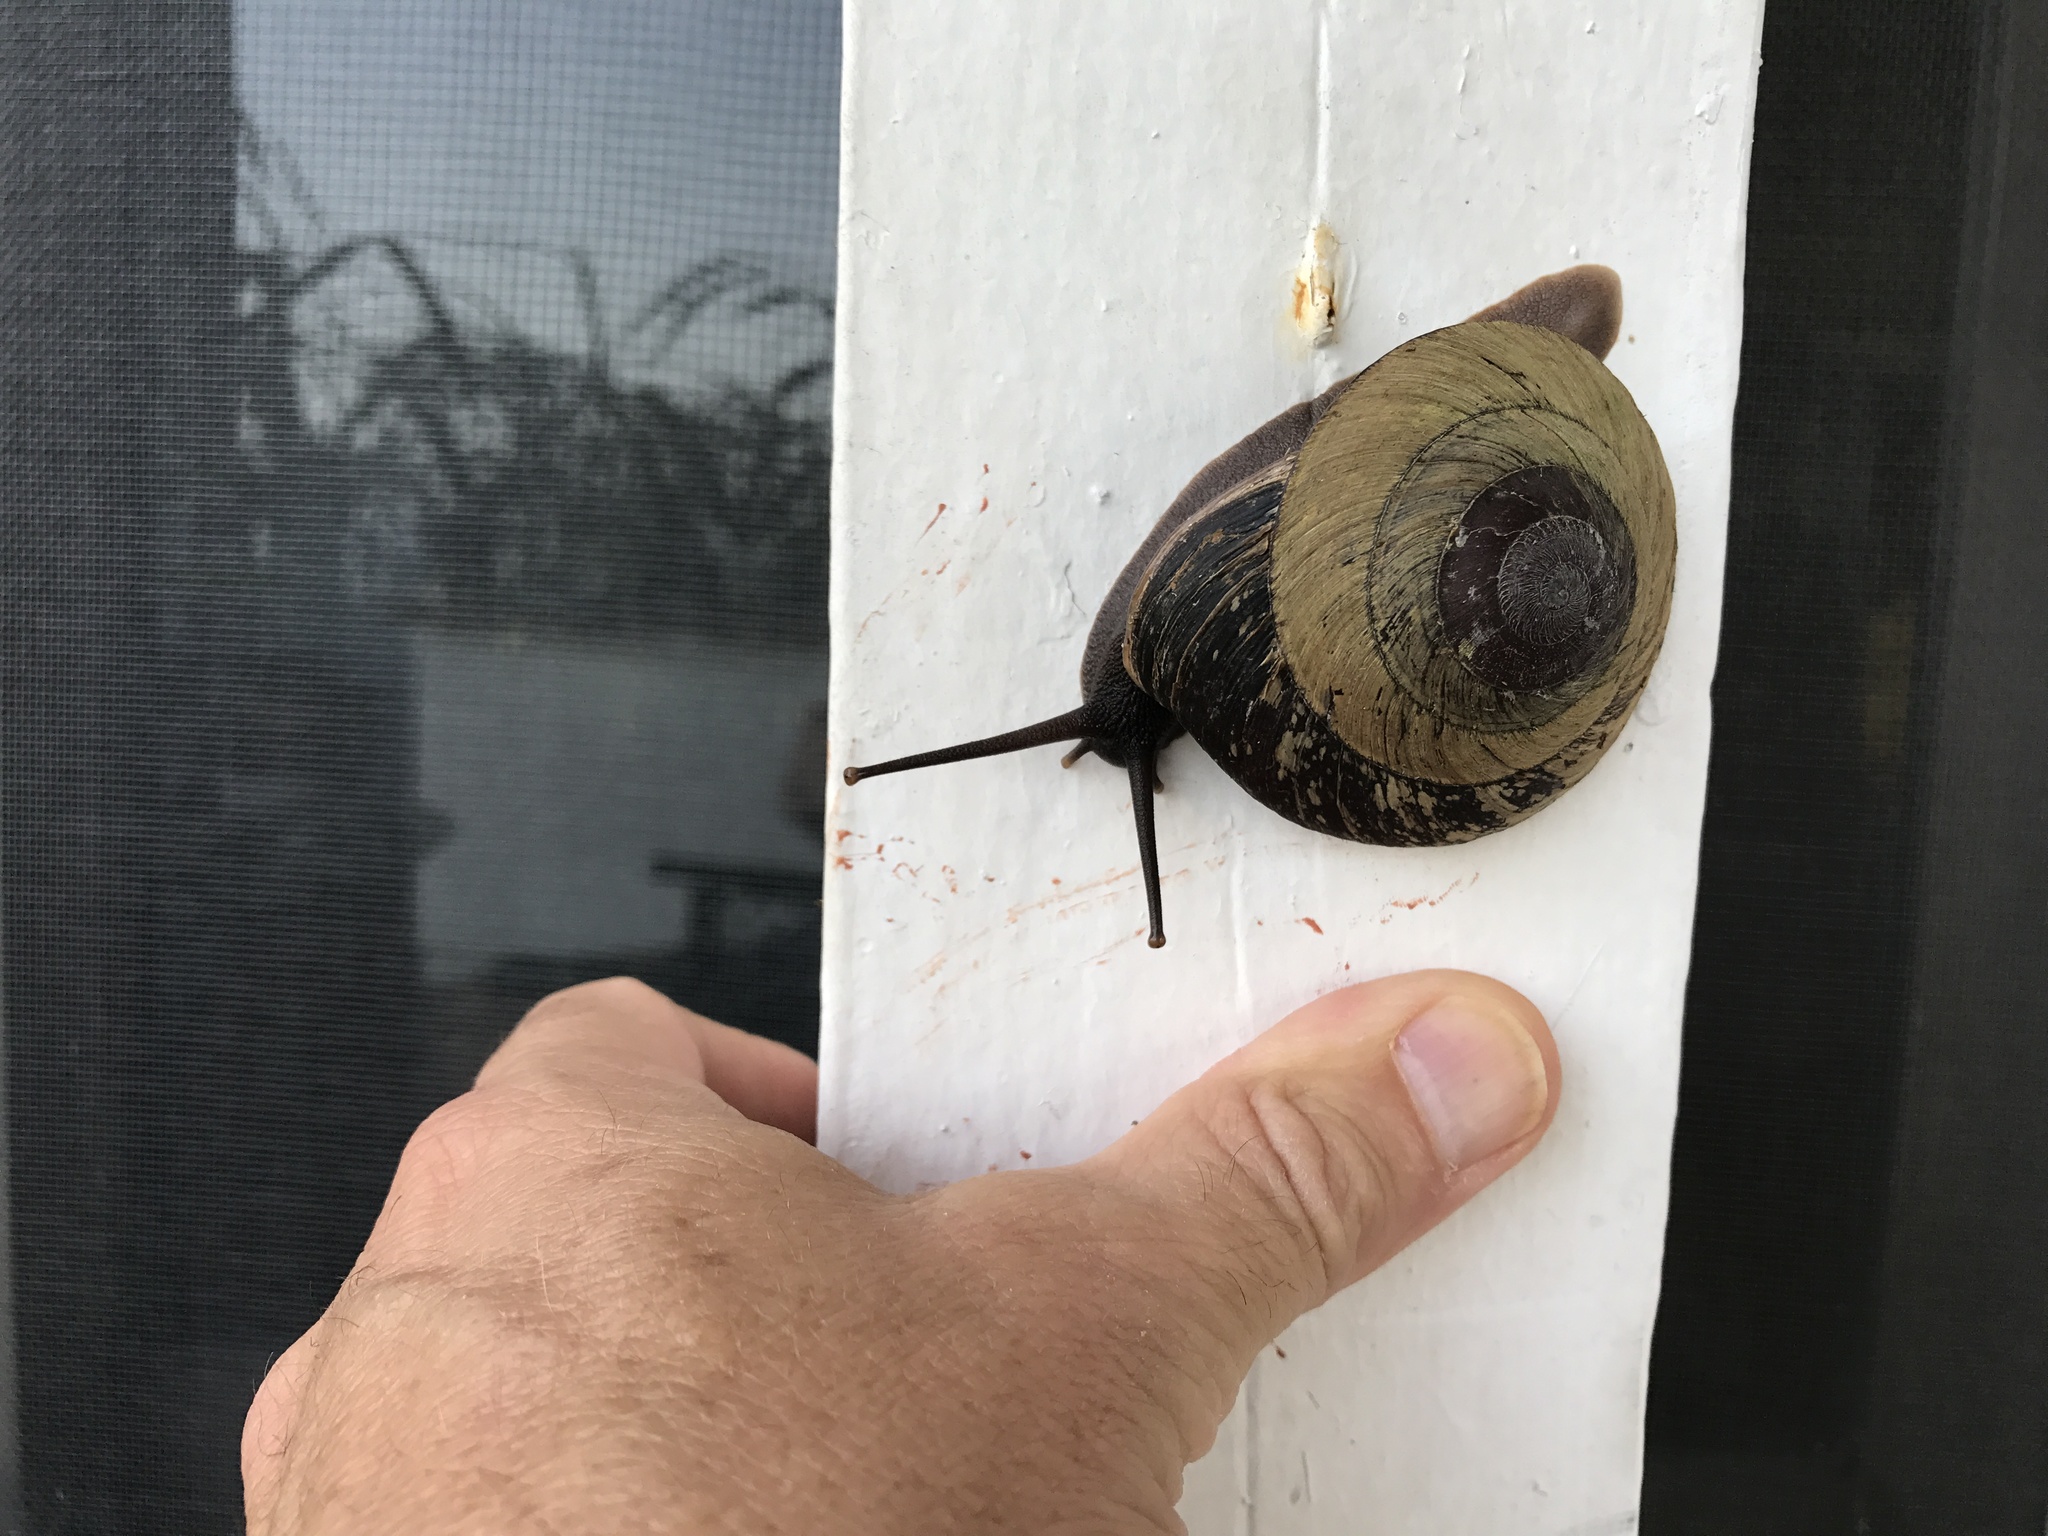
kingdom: Animalia
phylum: Mollusca
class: Gastropoda
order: Stylommatophora
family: Solaropsidae
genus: Caracolus
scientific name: Caracolus carocolla
